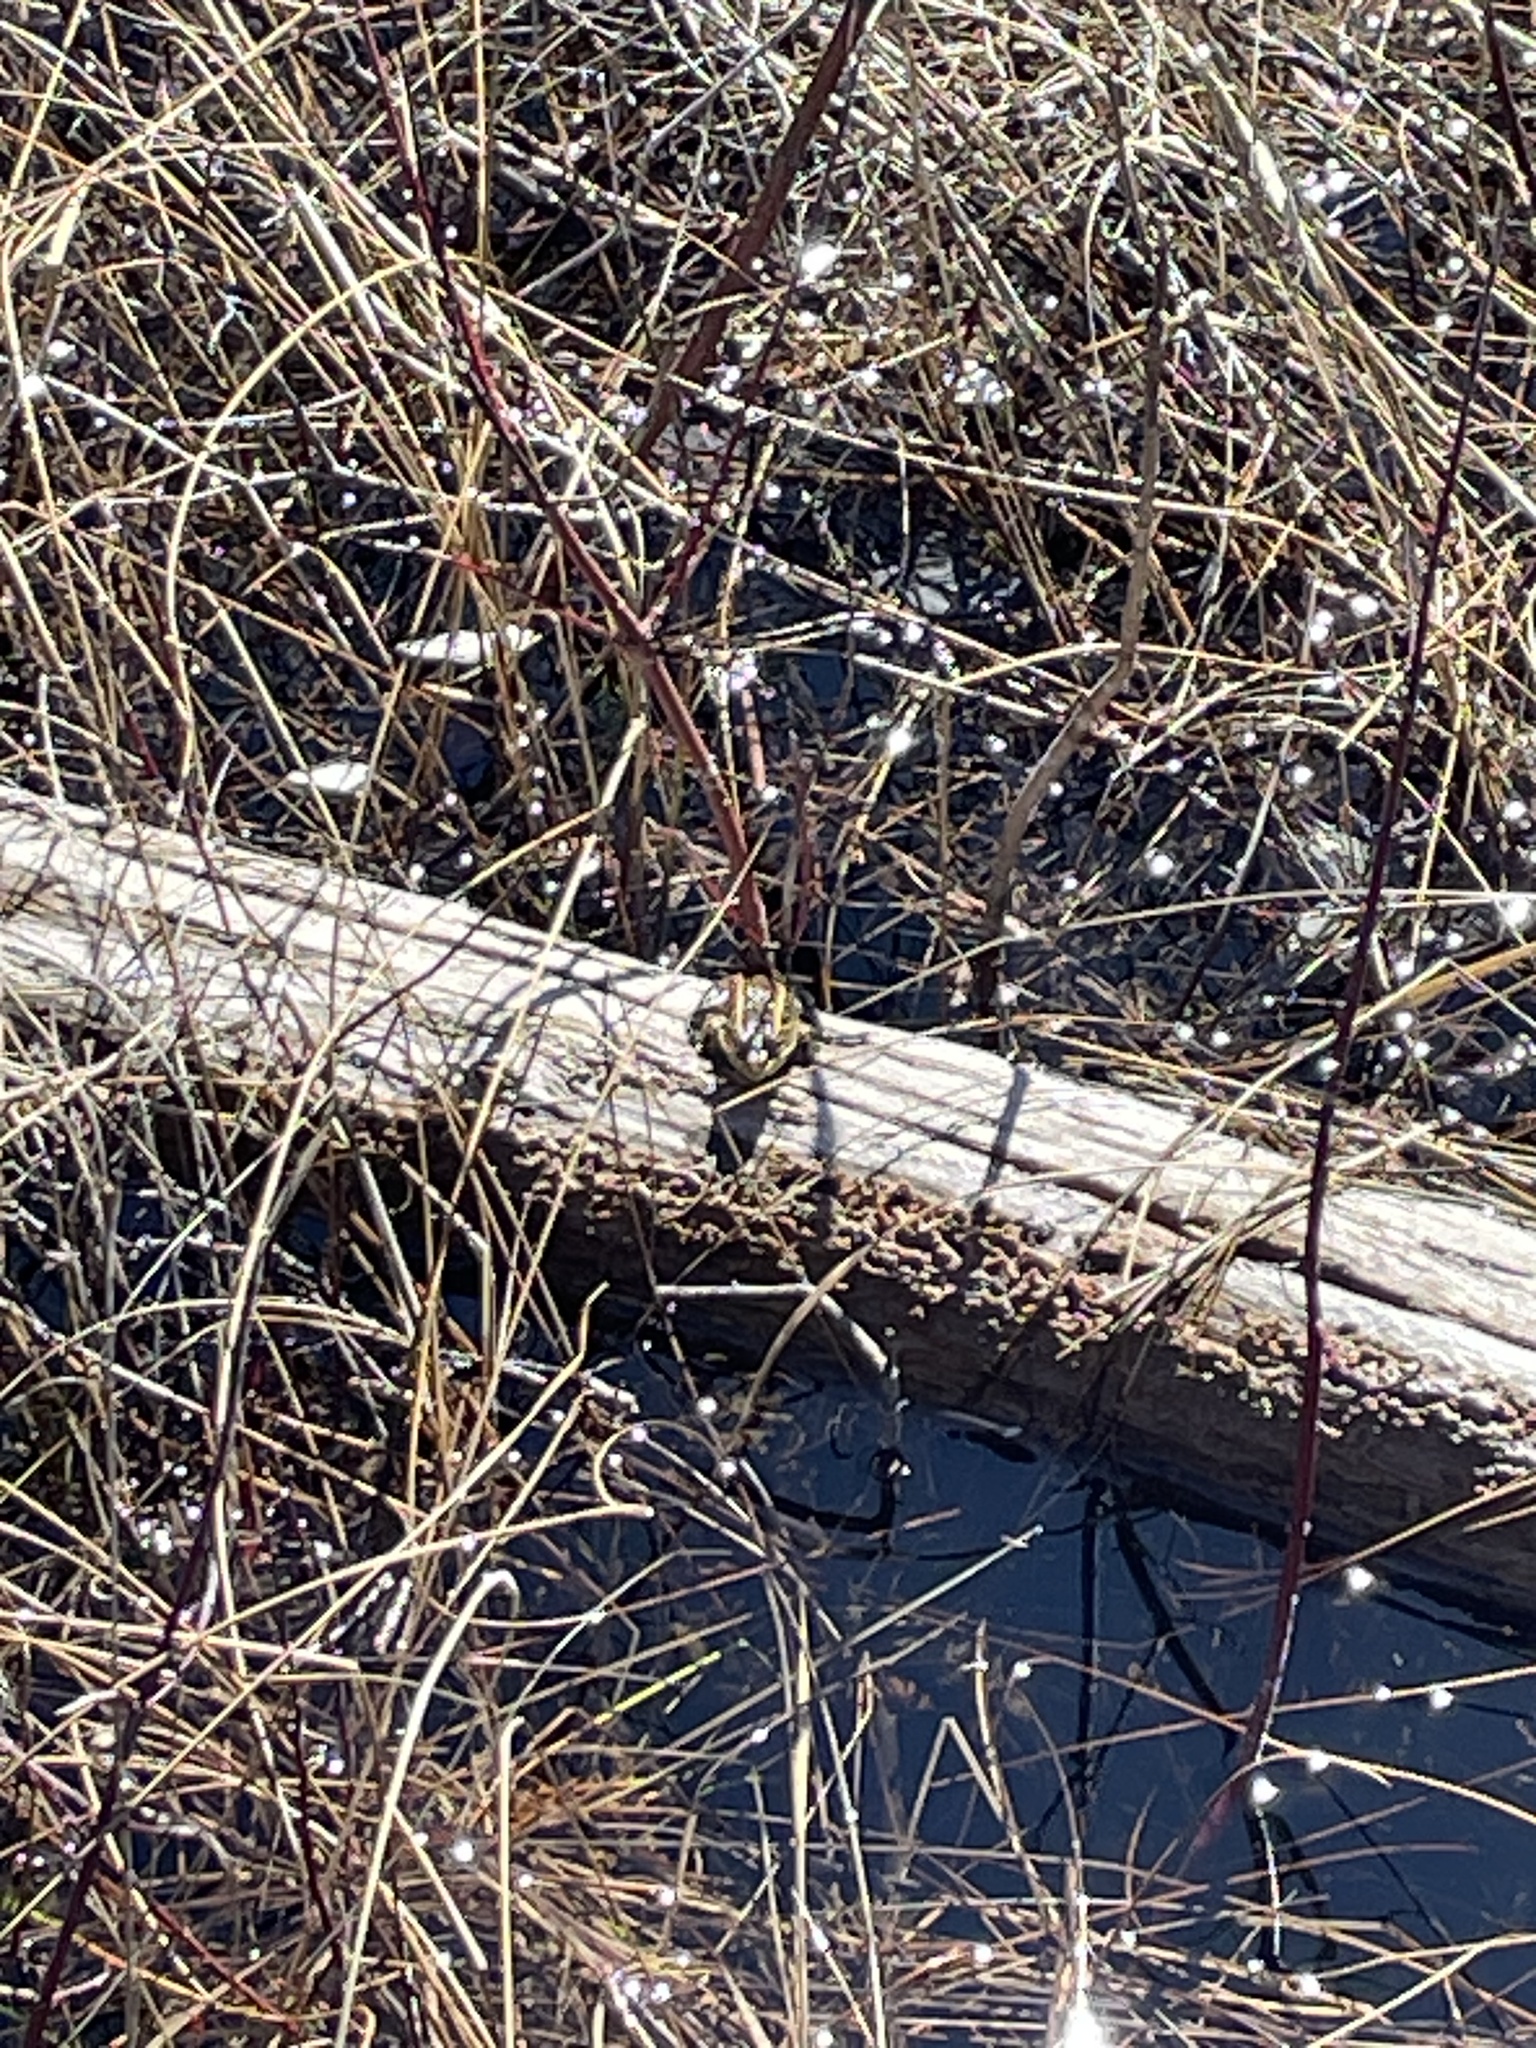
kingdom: Animalia
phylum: Chordata
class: Amphibia
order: Anura
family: Ranidae
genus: Lithobates
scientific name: Lithobates pipiens
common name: Northern leopard frog
